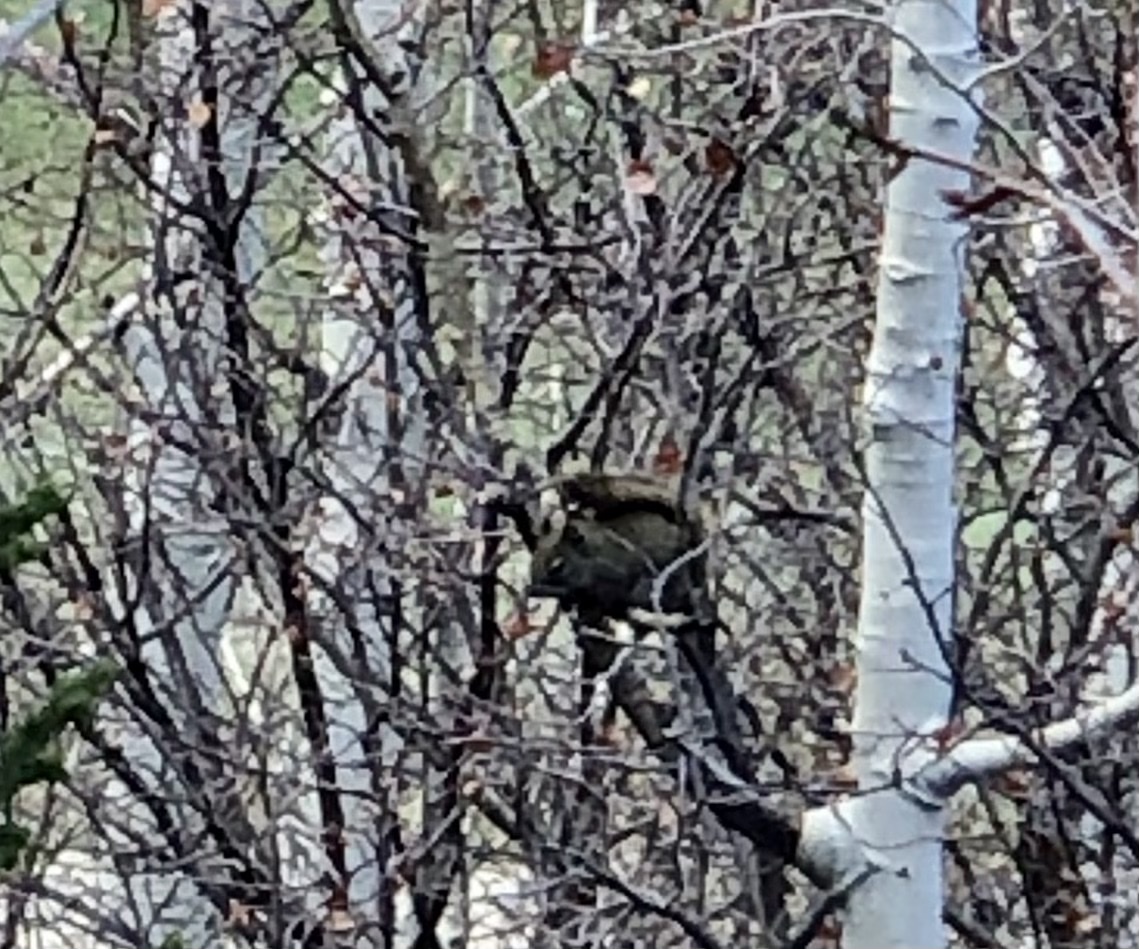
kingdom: Animalia
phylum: Chordata
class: Mammalia
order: Rodentia
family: Sciuridae
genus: Tamiasciurus
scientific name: Tamiasciurus hudsonicus
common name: Red squirrel
